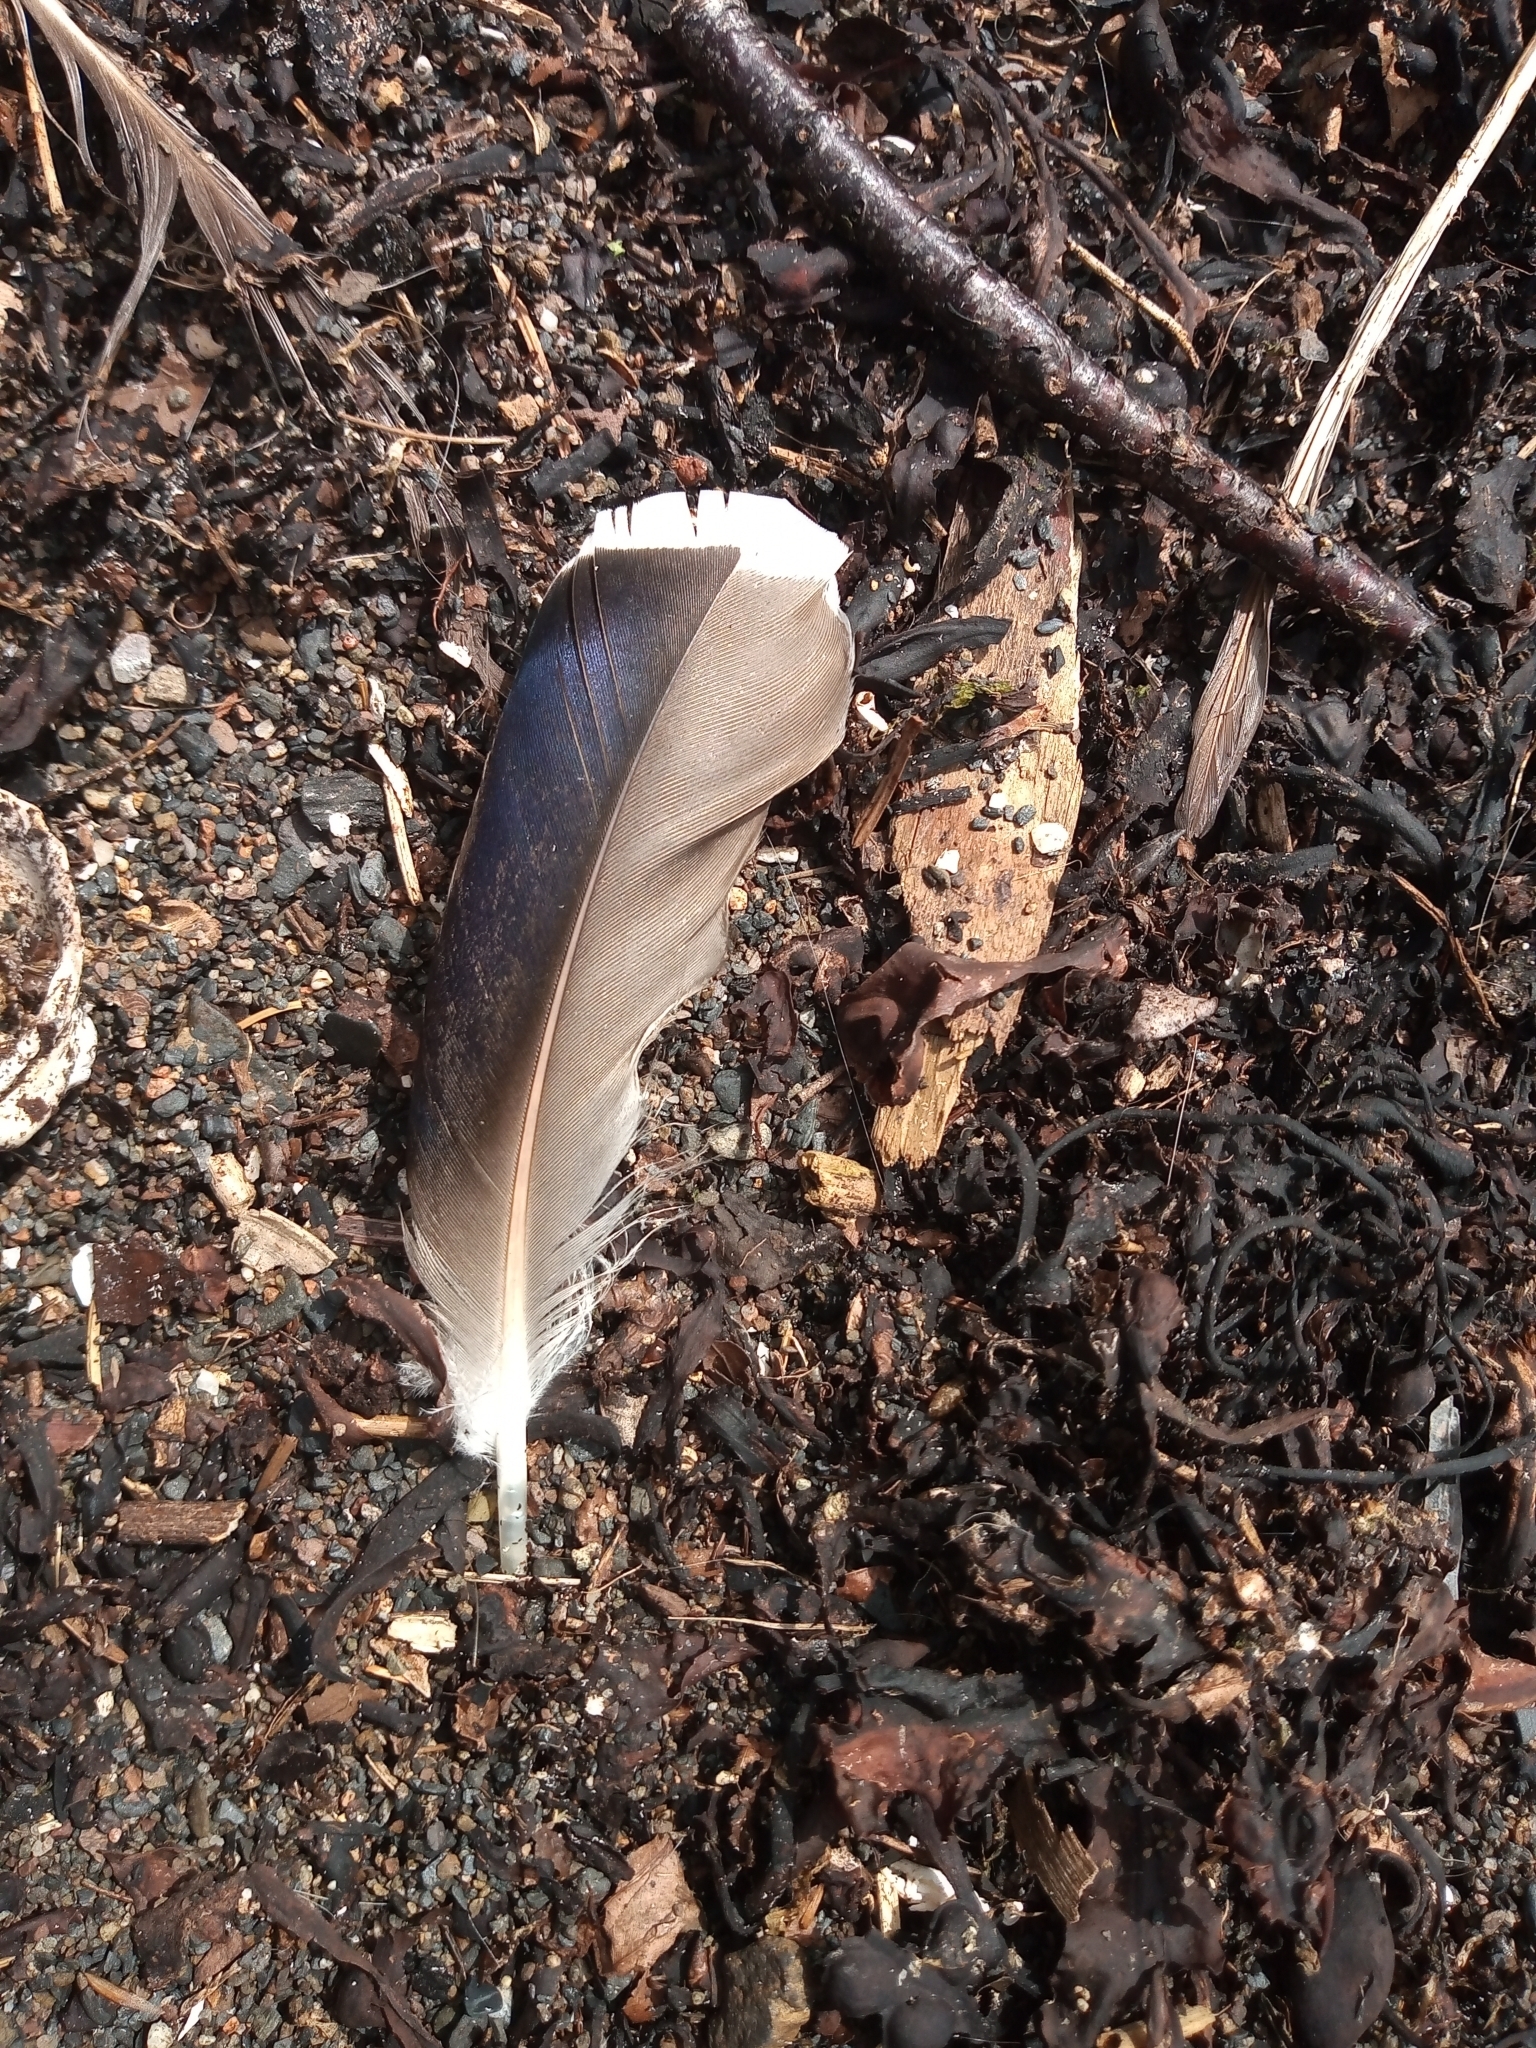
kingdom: Animalia
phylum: Chordata
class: Aves
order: Anseriformes
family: Anatidae
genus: Anas
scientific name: Anas platyrhynchos
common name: Mallard
